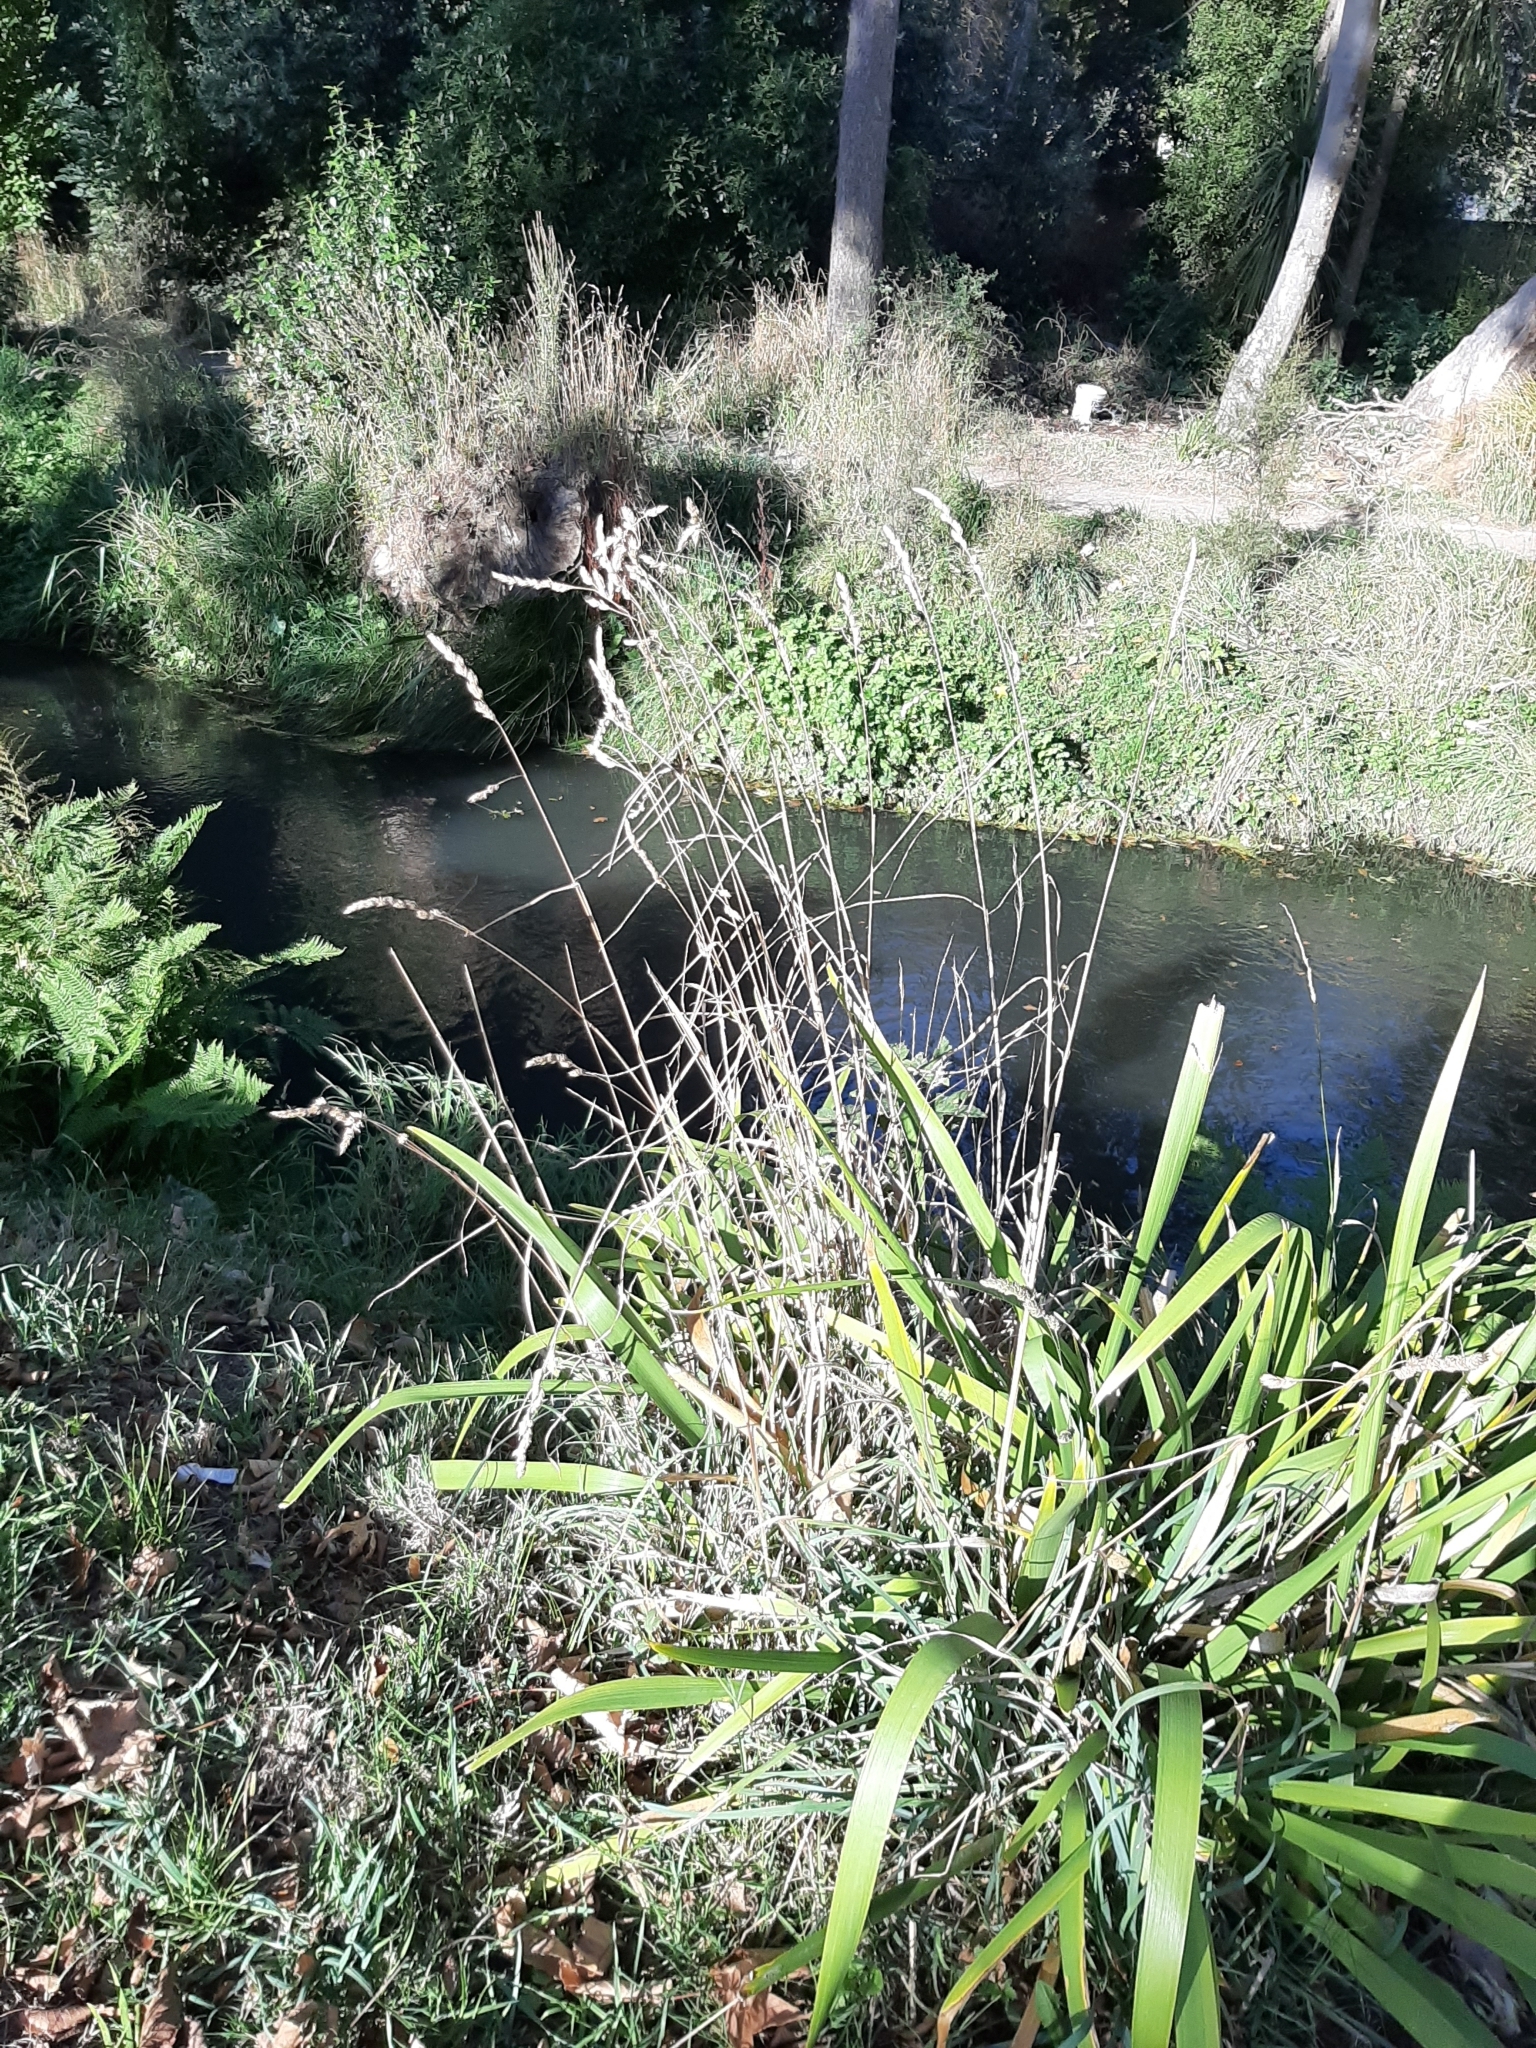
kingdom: Plantae
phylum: Tracheophyta
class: Liliopsida
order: Poales
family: Poaceae
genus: Dactylis
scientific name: Dactylis glomerata
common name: Orchardgrass
